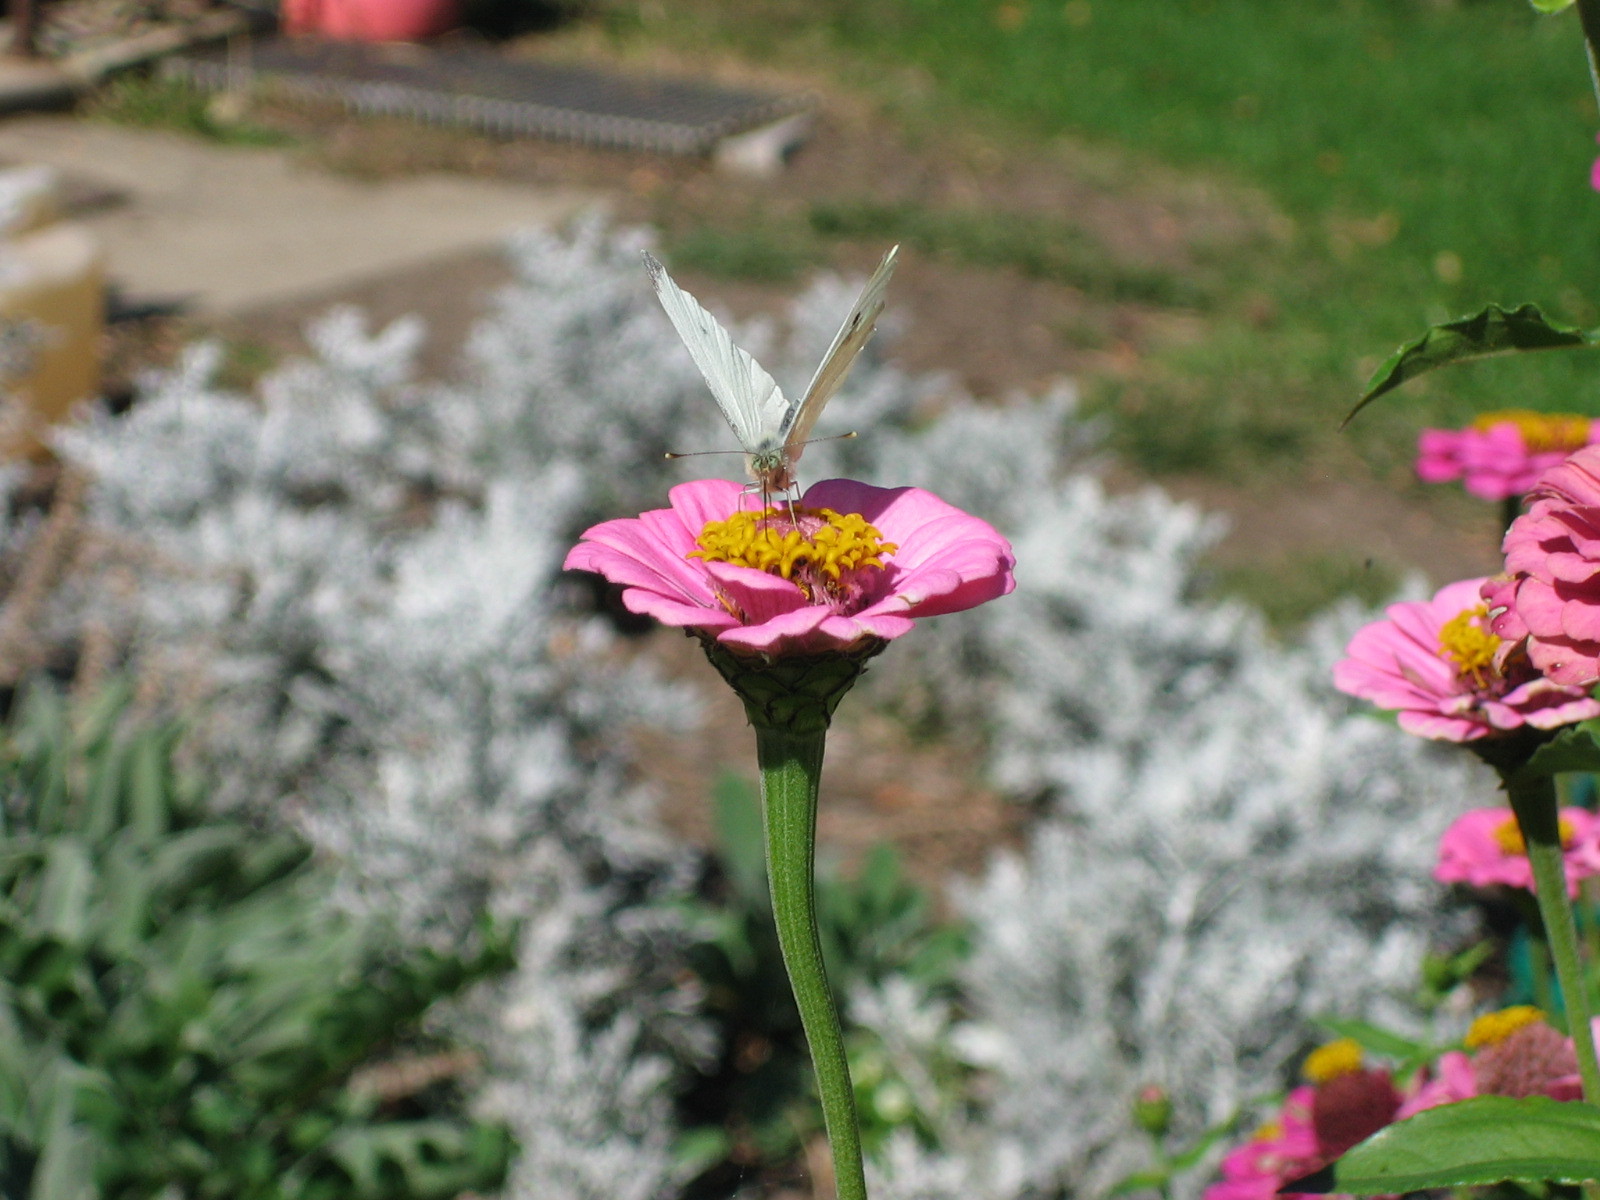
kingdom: Animalia
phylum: Arthropoda
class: Insecta
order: Lepidoptera
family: Pieridae
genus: Pieris
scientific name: Pieris rapae
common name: Small white
